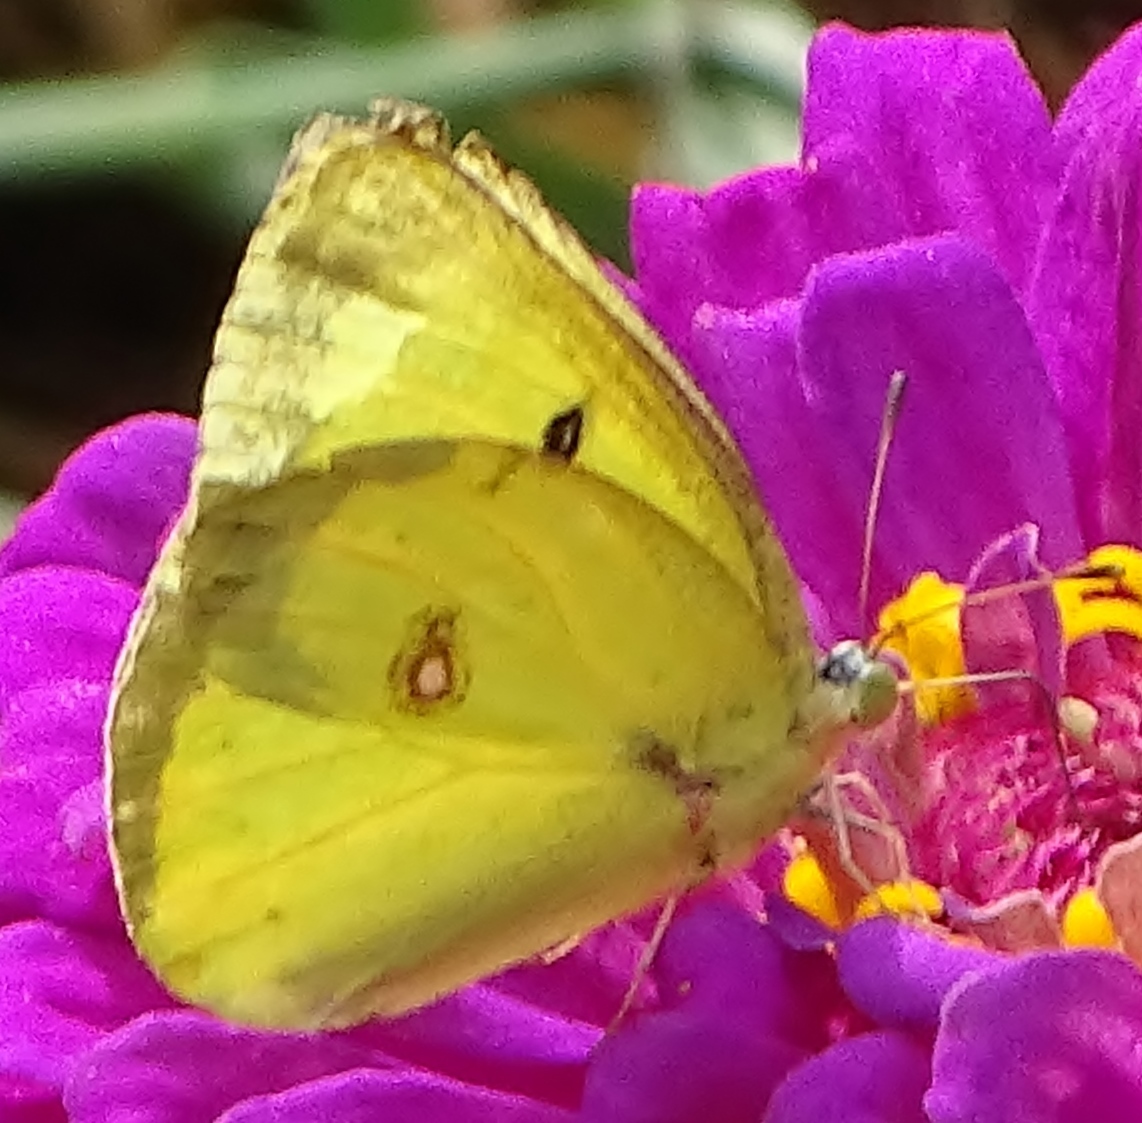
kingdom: Animalia
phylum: Arthropoda
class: Insecta
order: Lepidoptera
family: Pieridae
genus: Colias
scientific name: Colias philodice
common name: Clouded sulphur
